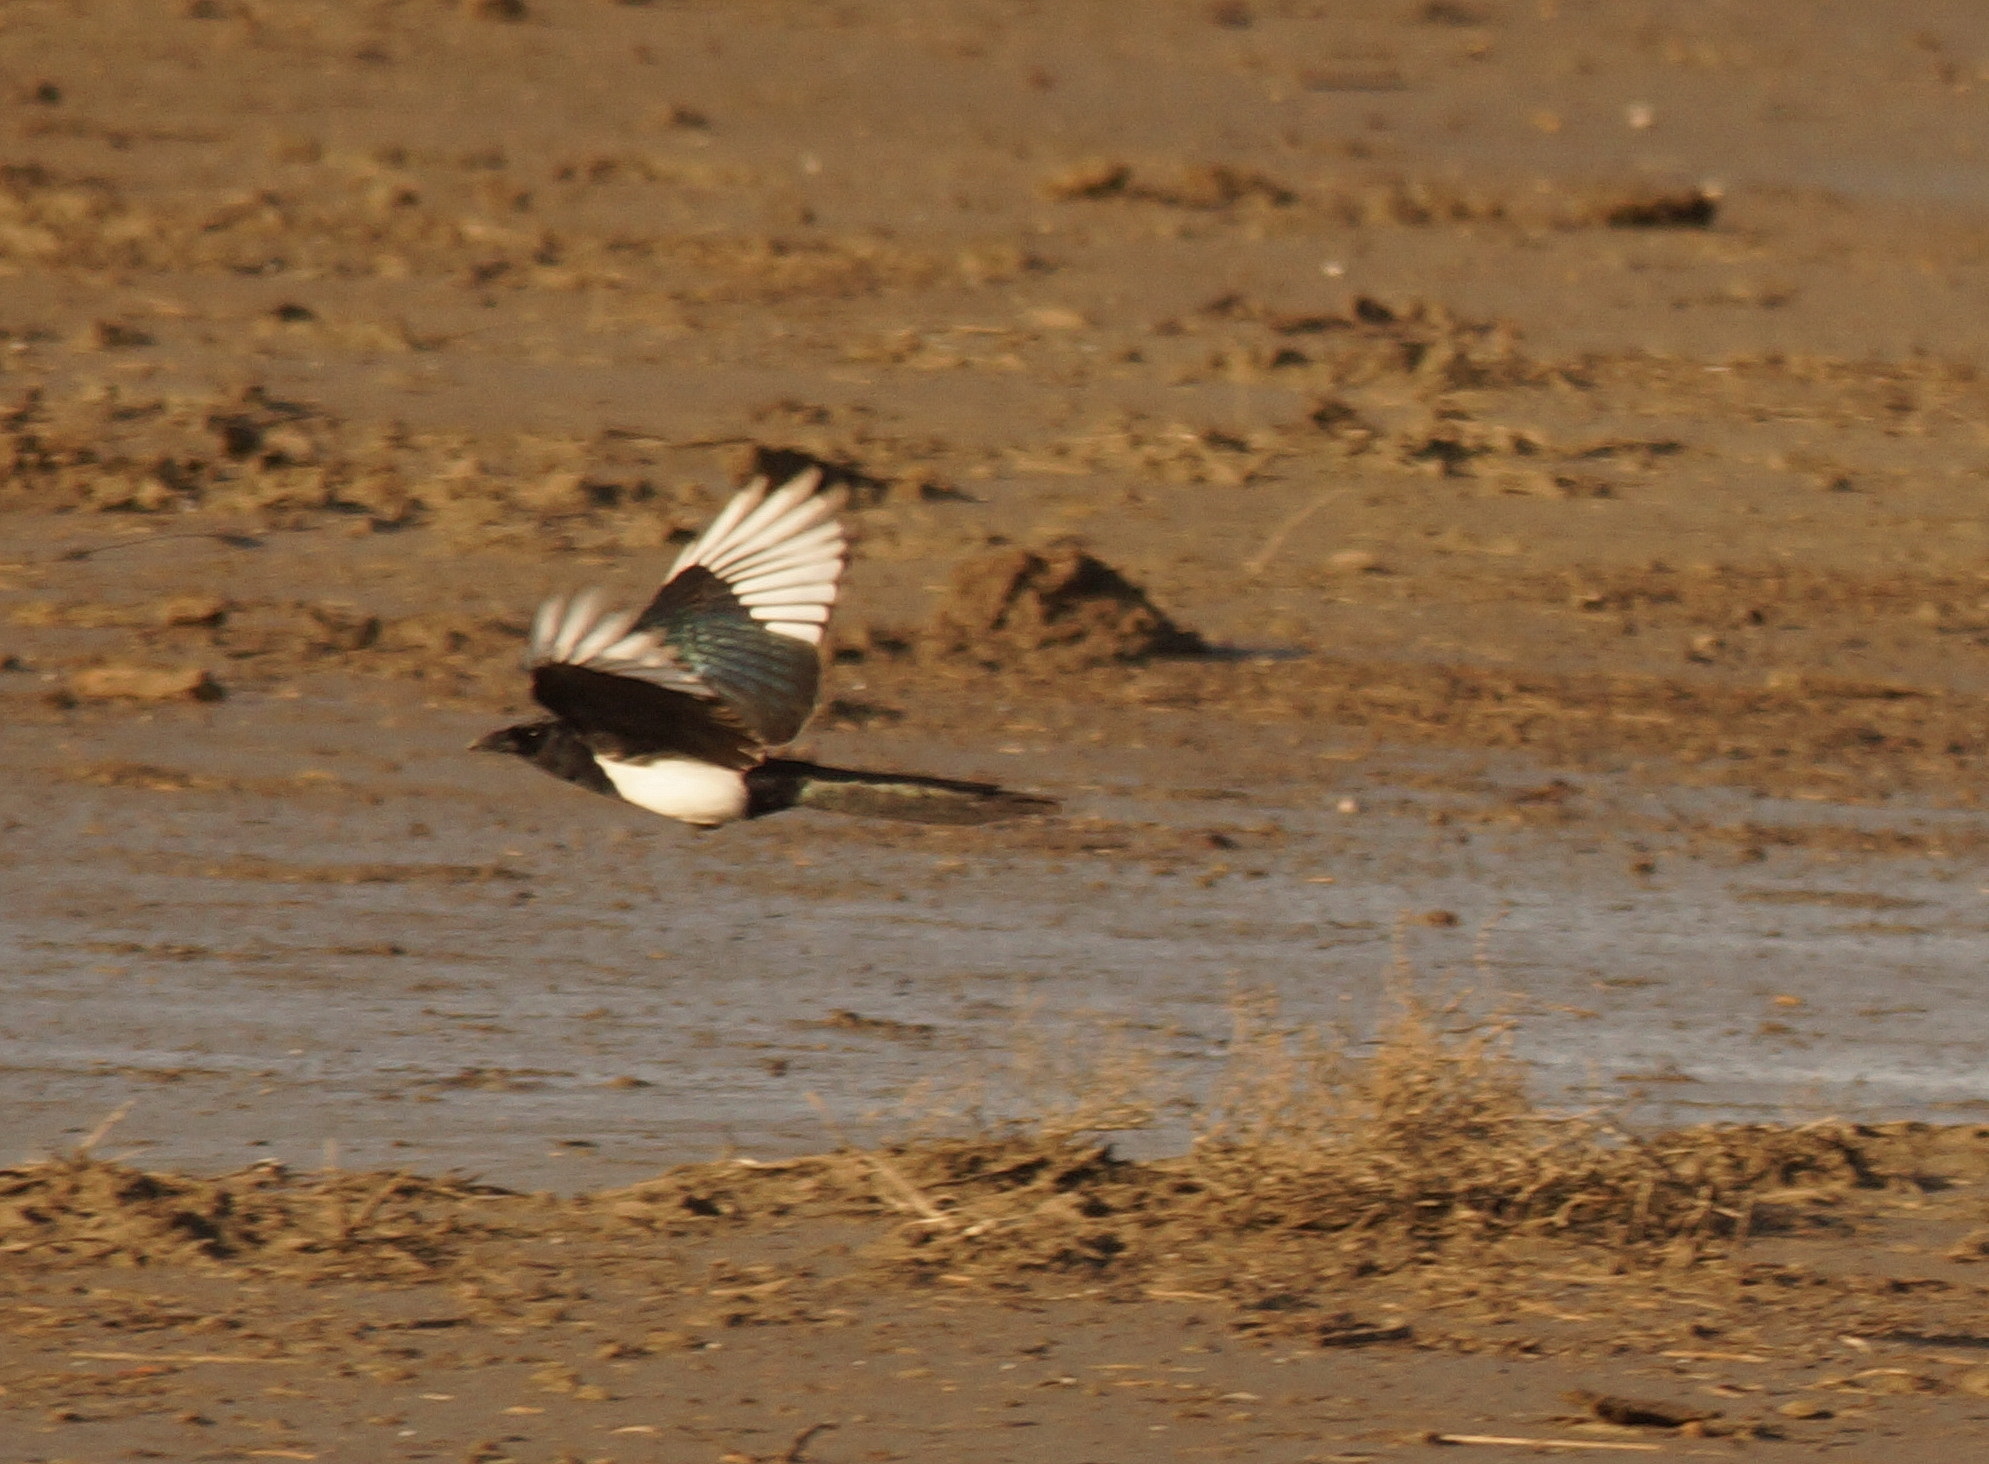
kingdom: Animalia
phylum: Chordata
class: Aves
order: Passeriformes
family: Corvidae
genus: Pica
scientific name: Pica pica
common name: Eurasian magpie
